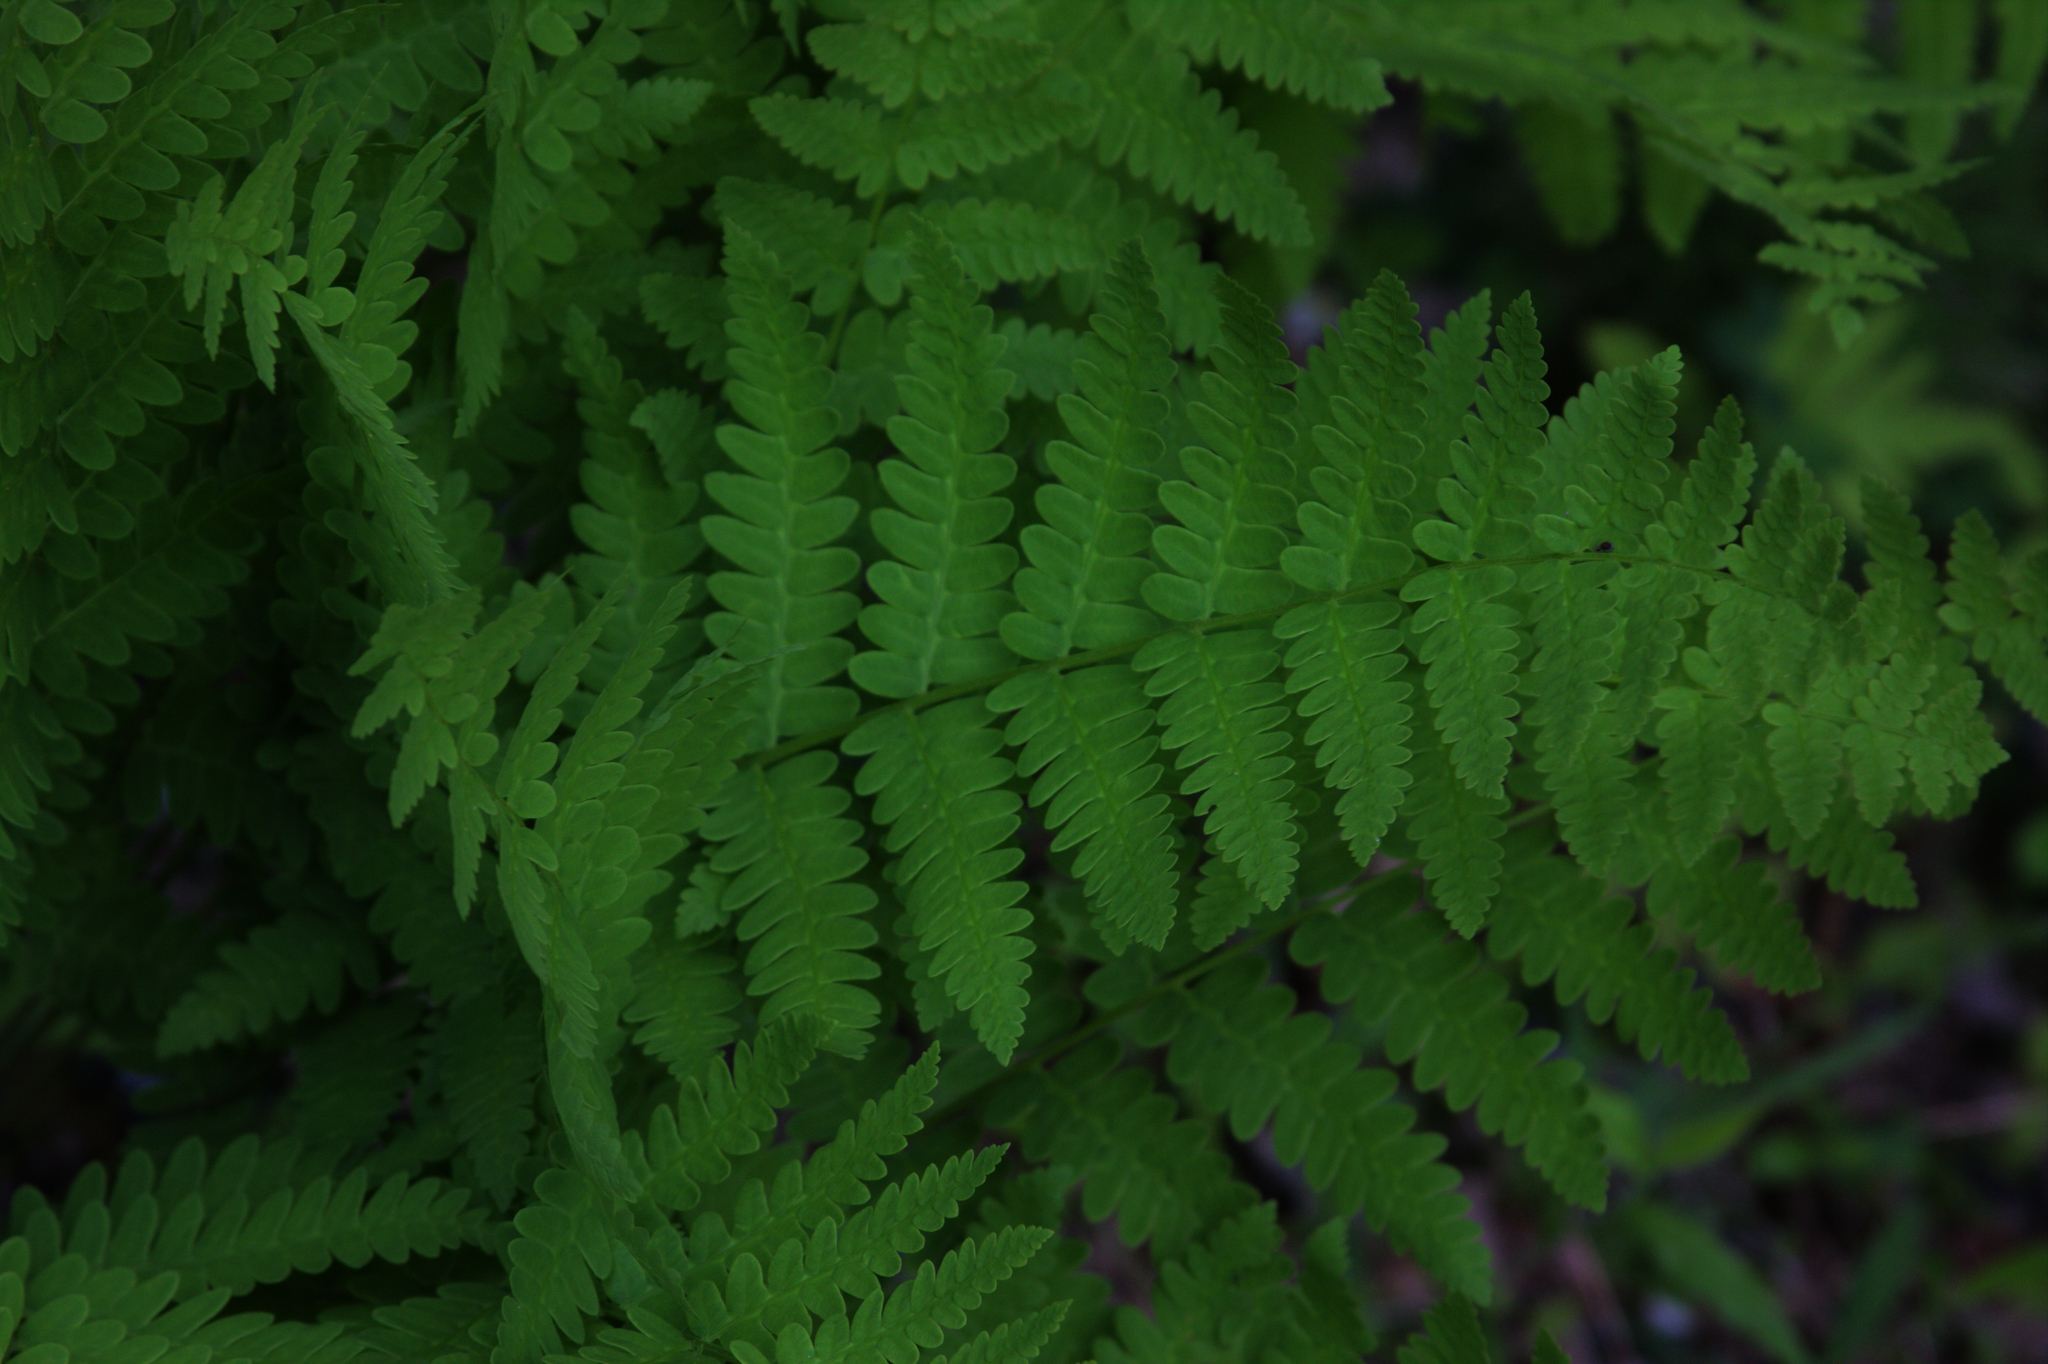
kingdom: Plantae
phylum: Tracheophyta
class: Polypodiopsida
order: Osmundales
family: Osmundaceae
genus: Claytosmunda
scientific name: Claytosmunda claytoniana
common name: Clayton's fern
